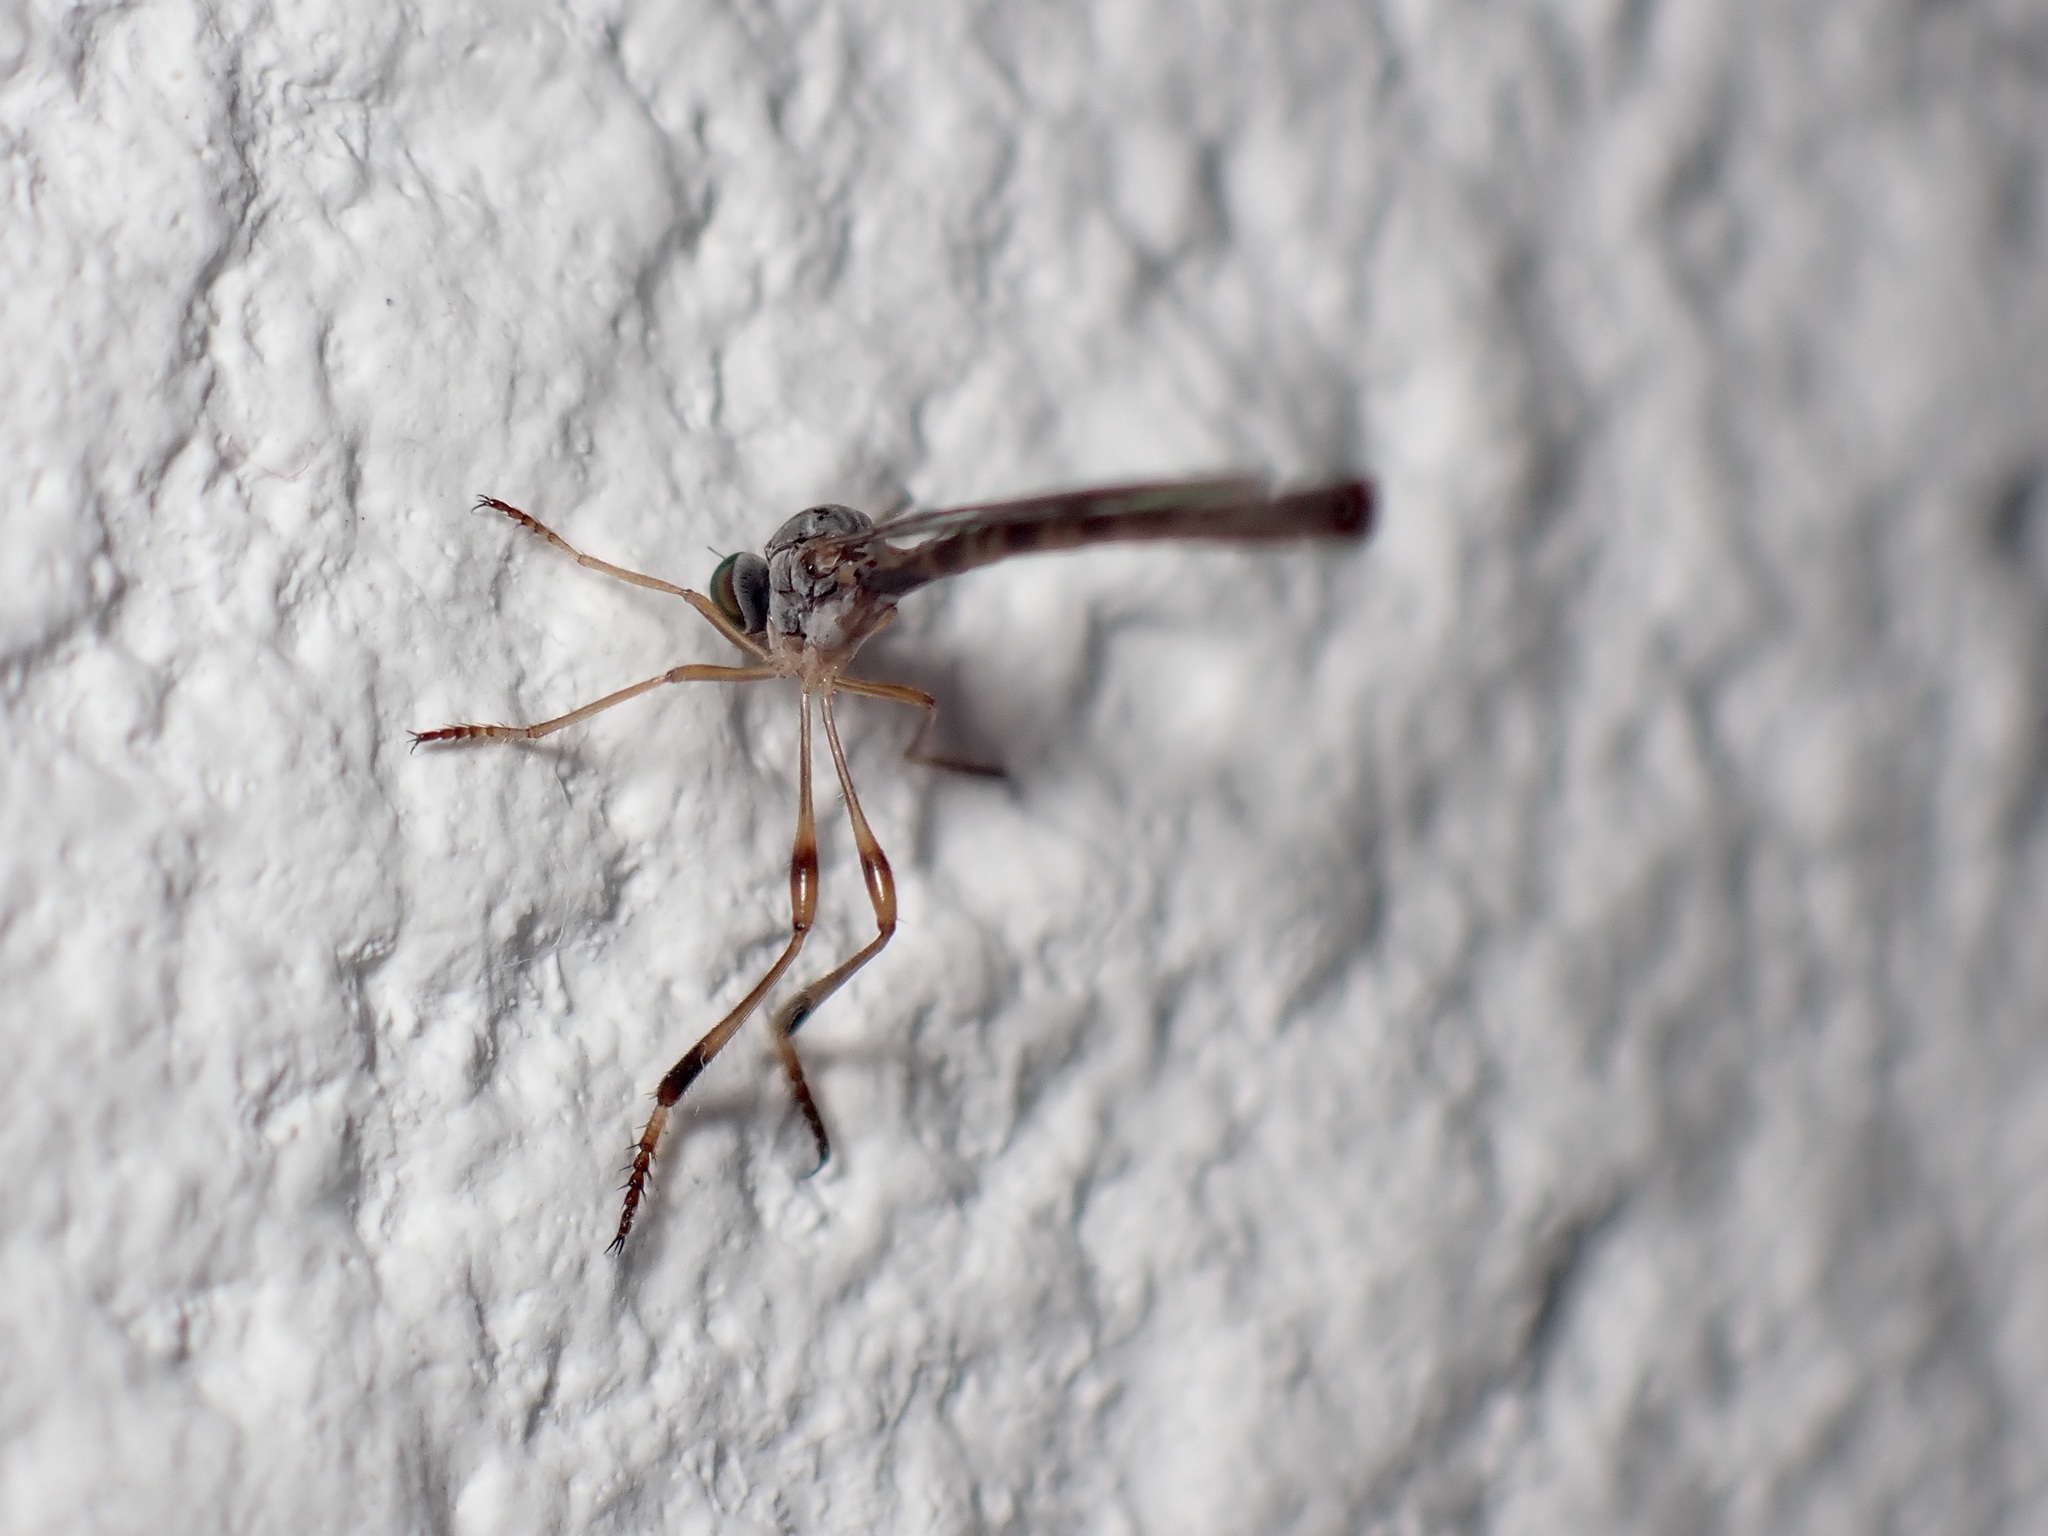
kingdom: Animalia
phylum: Arthropoda
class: Insecta
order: Diptera
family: Asilidae
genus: Leptogaster
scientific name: Leptogaster subtilis
